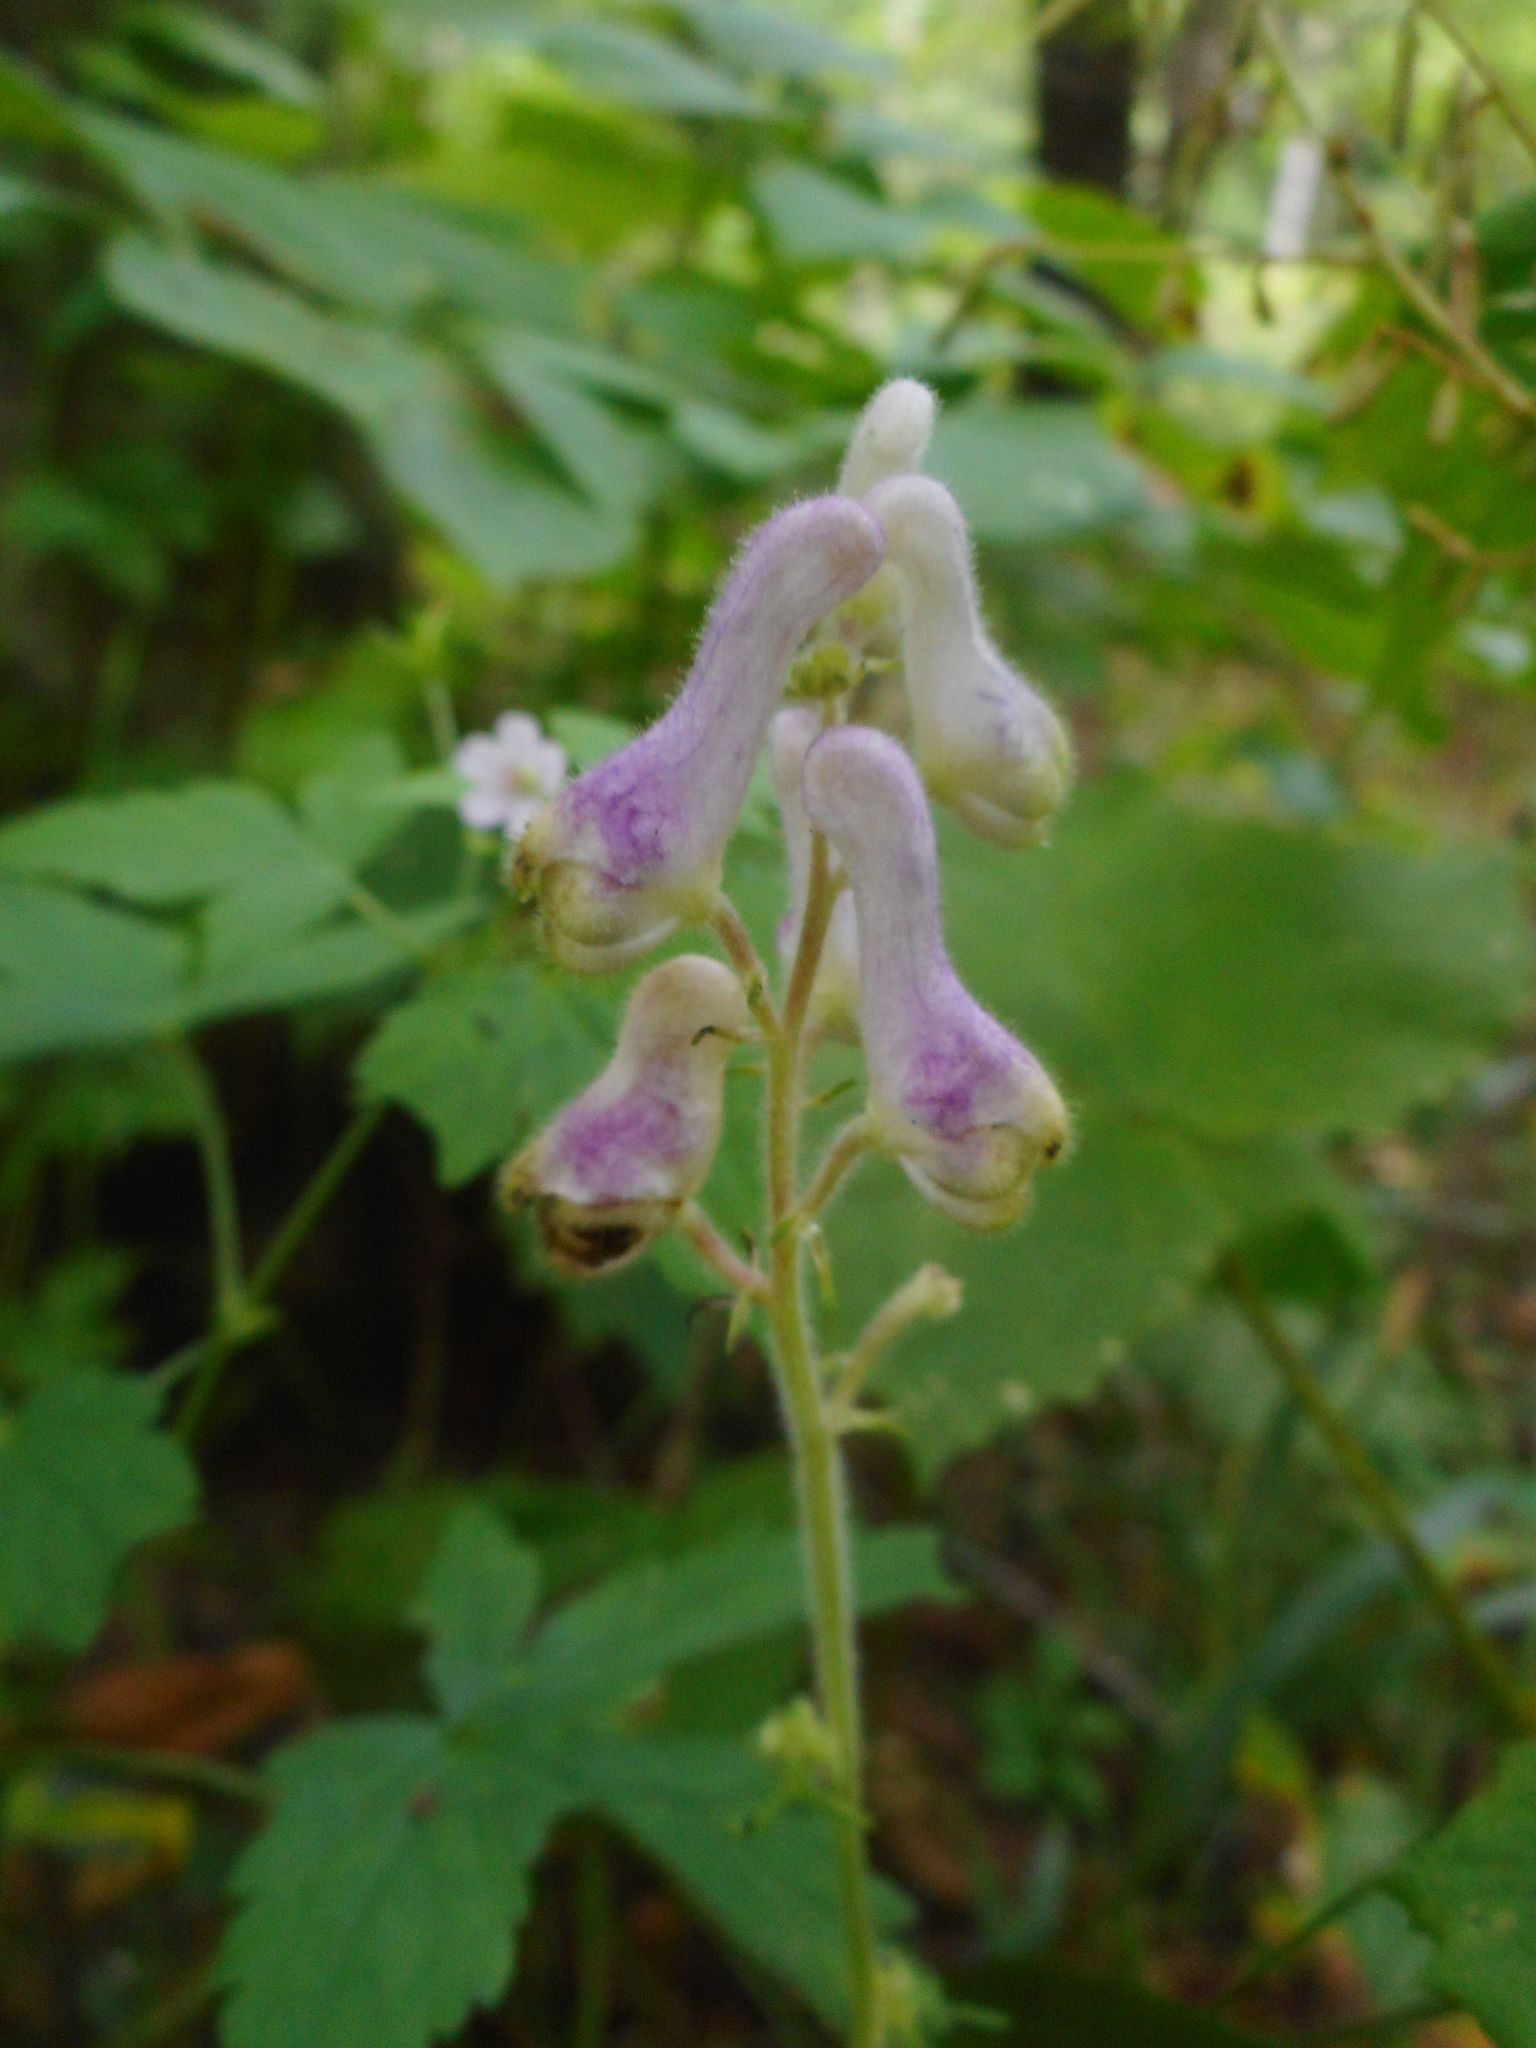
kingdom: Plantae
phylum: Tracheophyta
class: Magnoliopsida
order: Ranunculales
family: Ranunculaceae
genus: Aconitum
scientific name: Aconitum alboviolaceum
